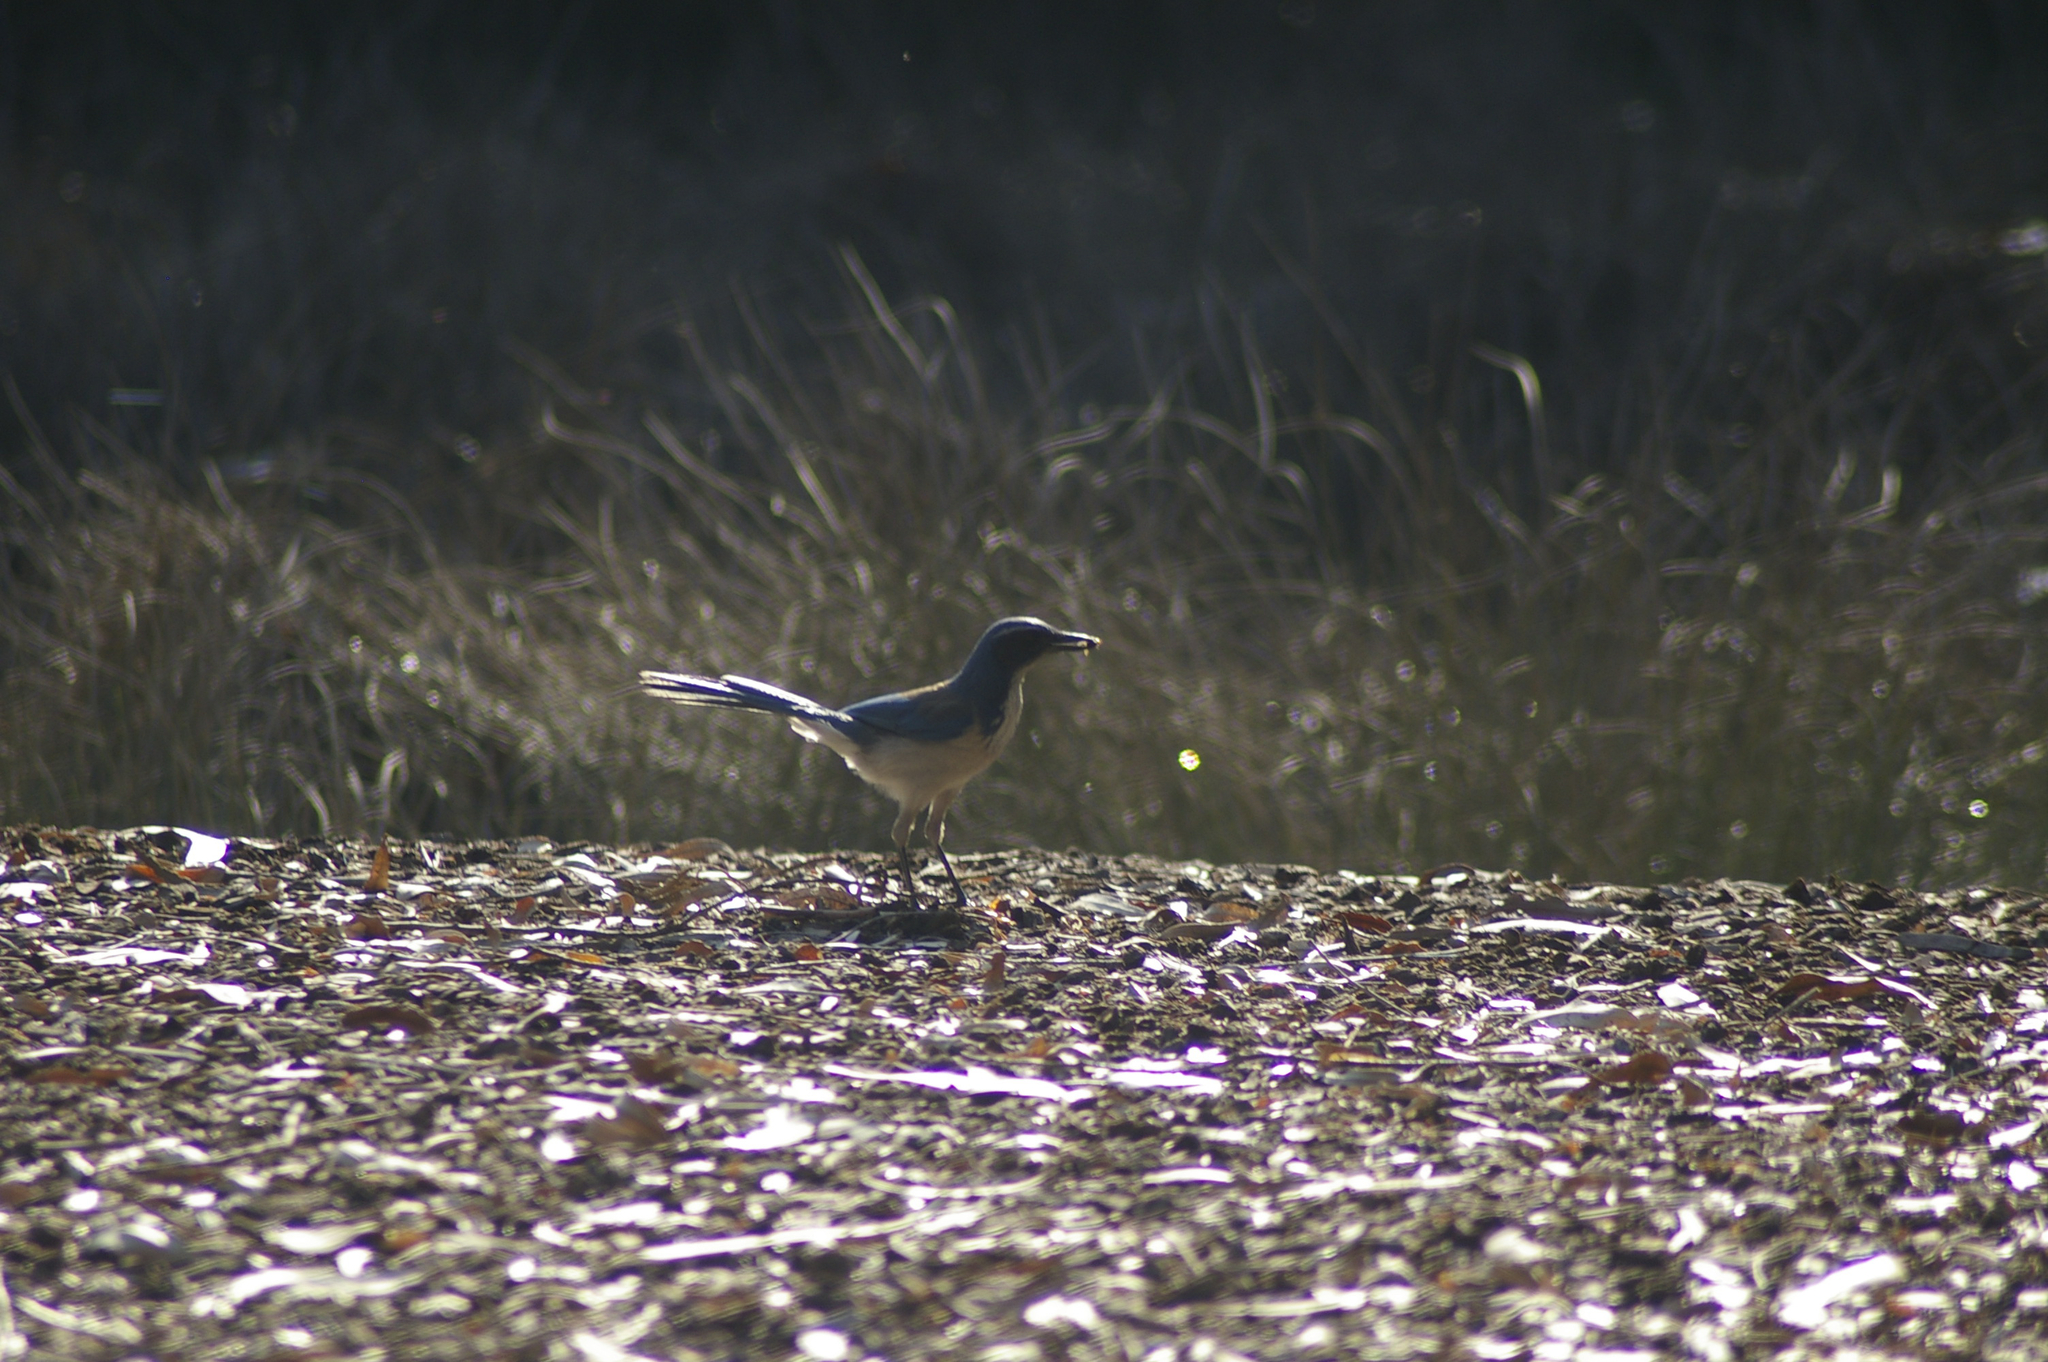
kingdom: Animalia
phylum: Chordata
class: Aves
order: Passeriformes
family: Corvidae
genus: Aphelocoma
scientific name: Aphelocoma californica
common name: California scrub-jay
